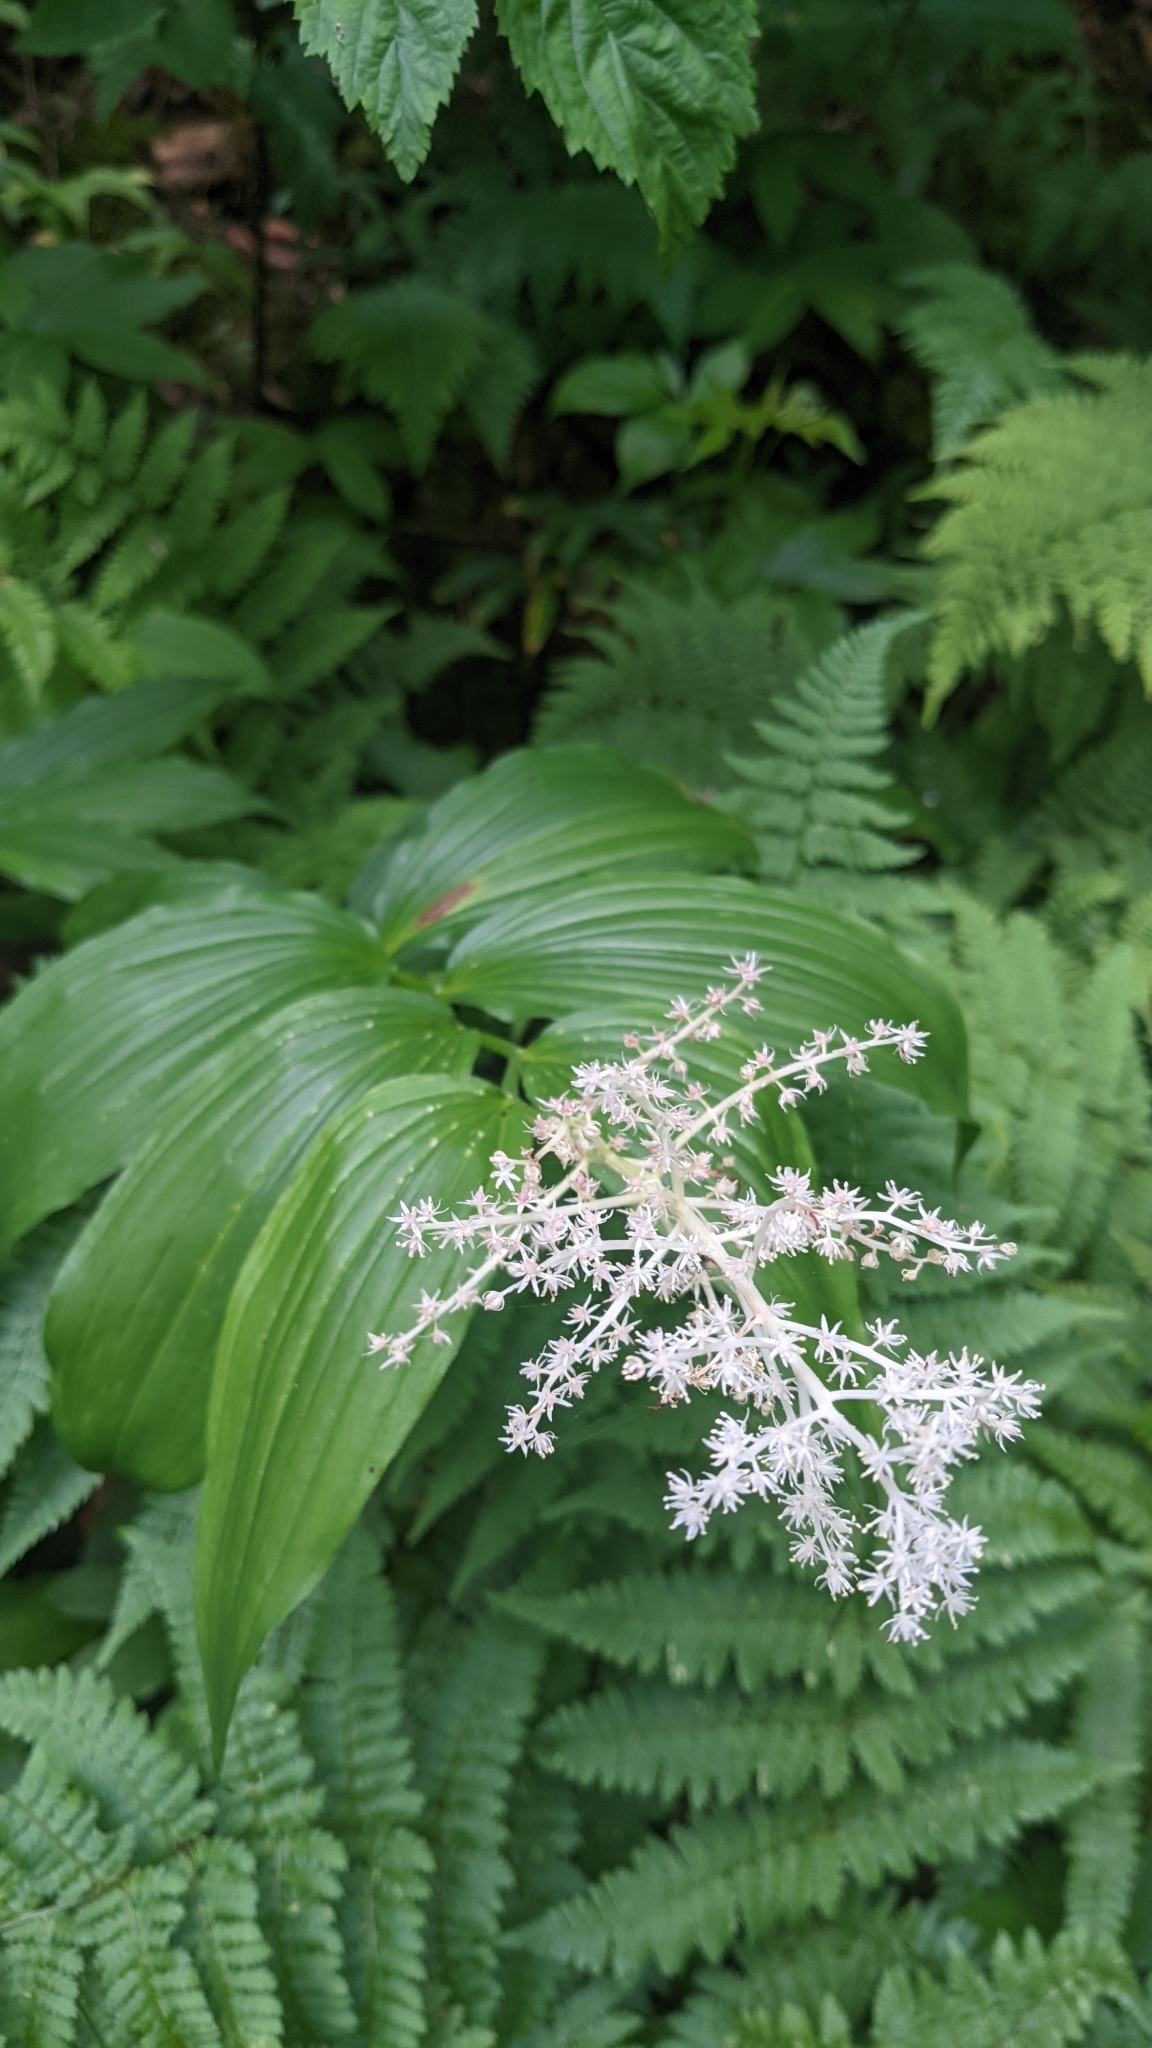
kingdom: Plantae
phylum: Tracheophyta
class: Liliopsida
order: Asparagales
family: Asparagaceae
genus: Maianthemum
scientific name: Maianthemum racemosum
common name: False spikenard
